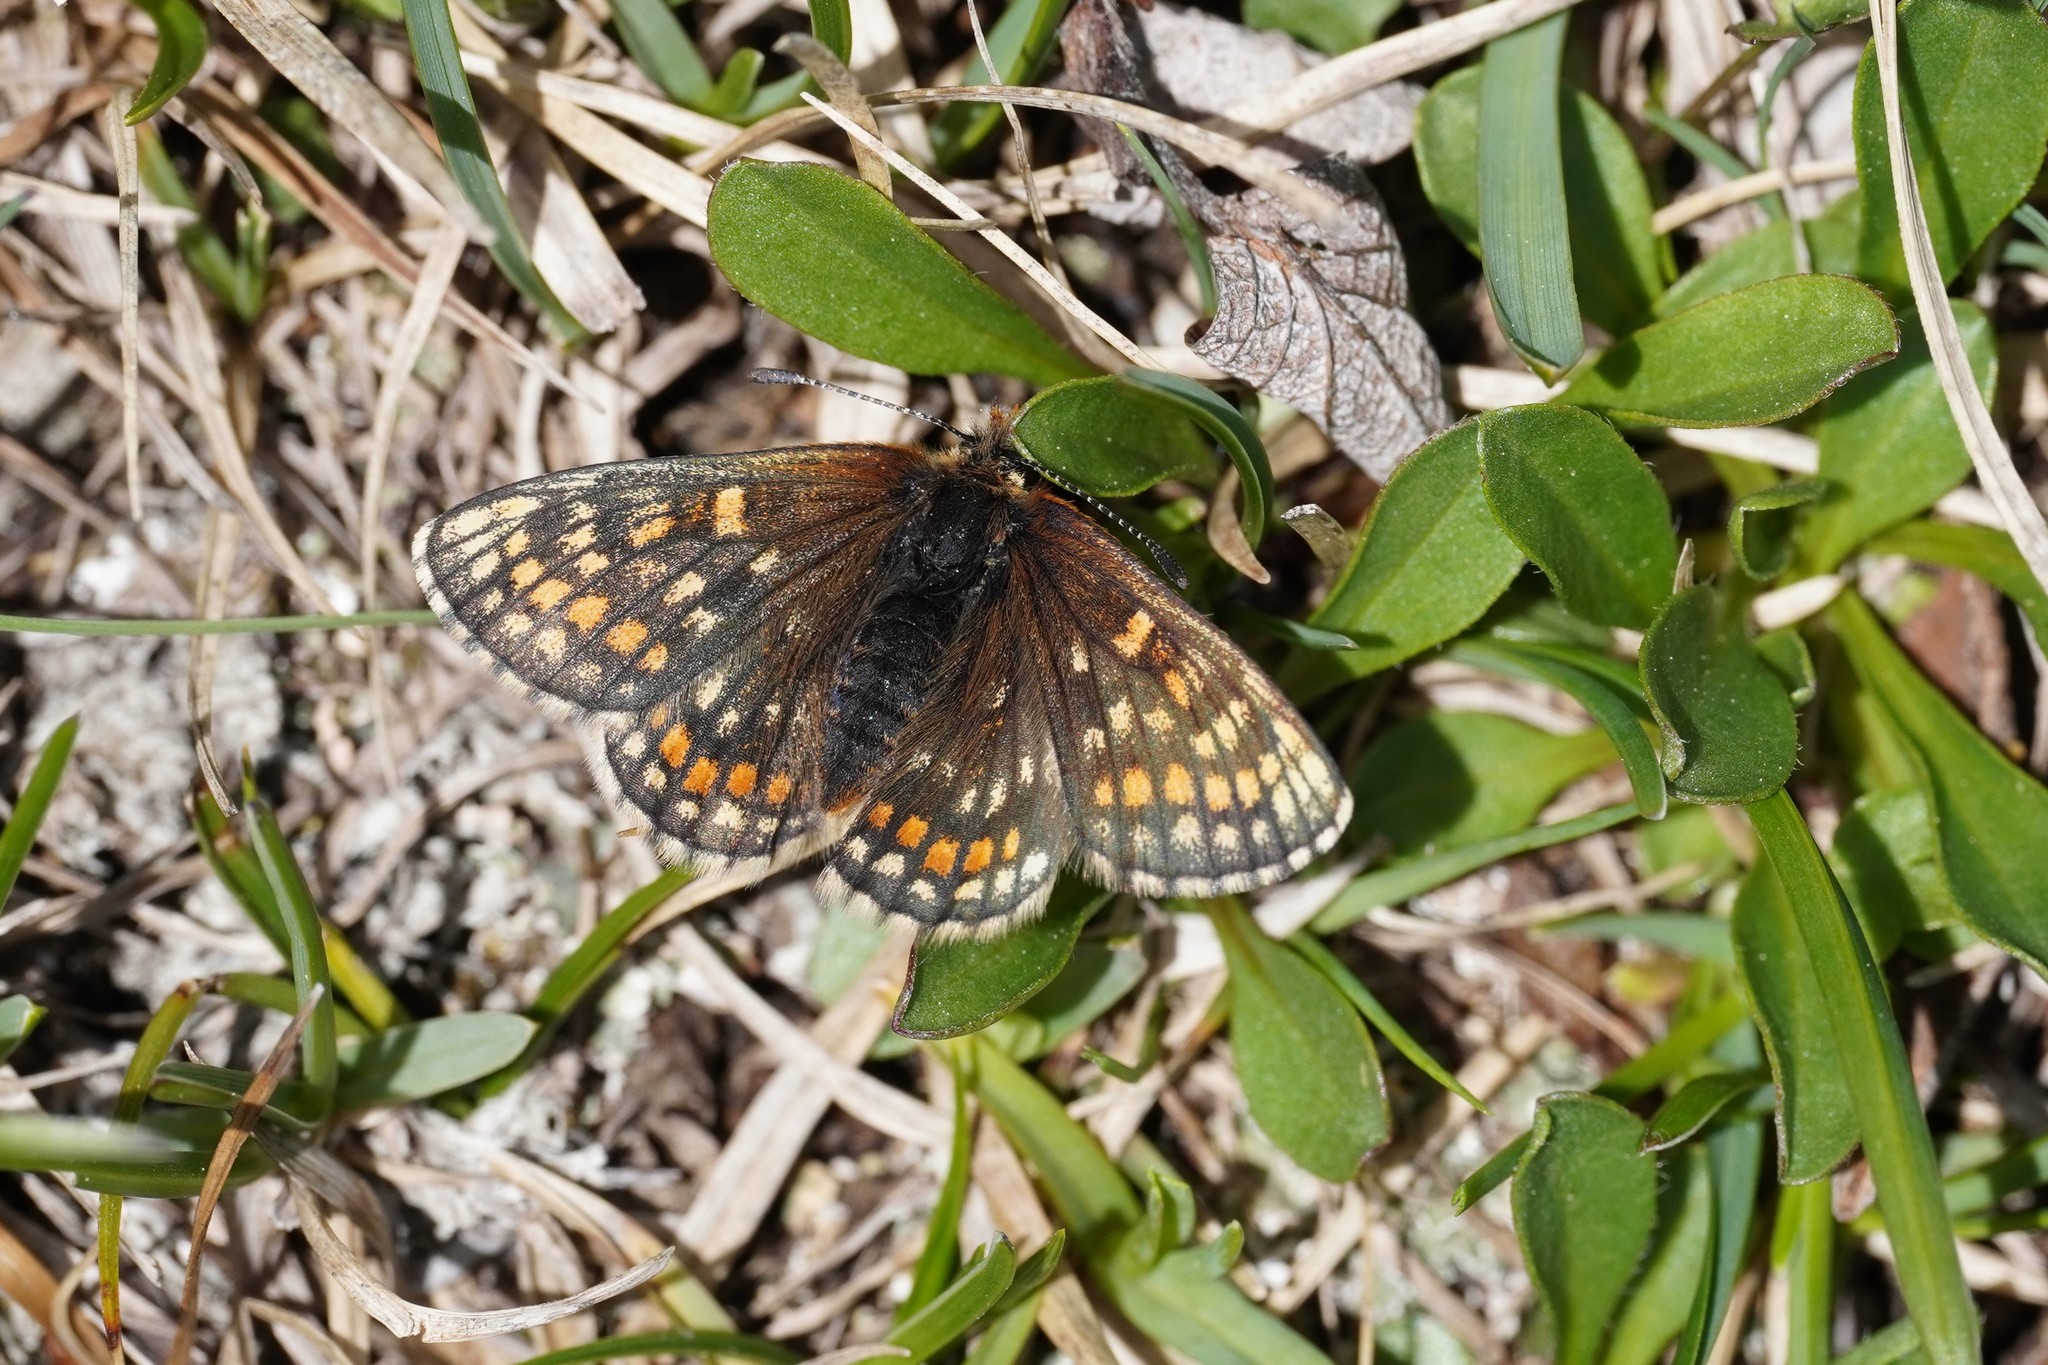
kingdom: Animalia
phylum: Arthropoda
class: Insecta
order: Lepidoptera
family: Nymphalidae
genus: Mellicta
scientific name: Mellicta asteria
